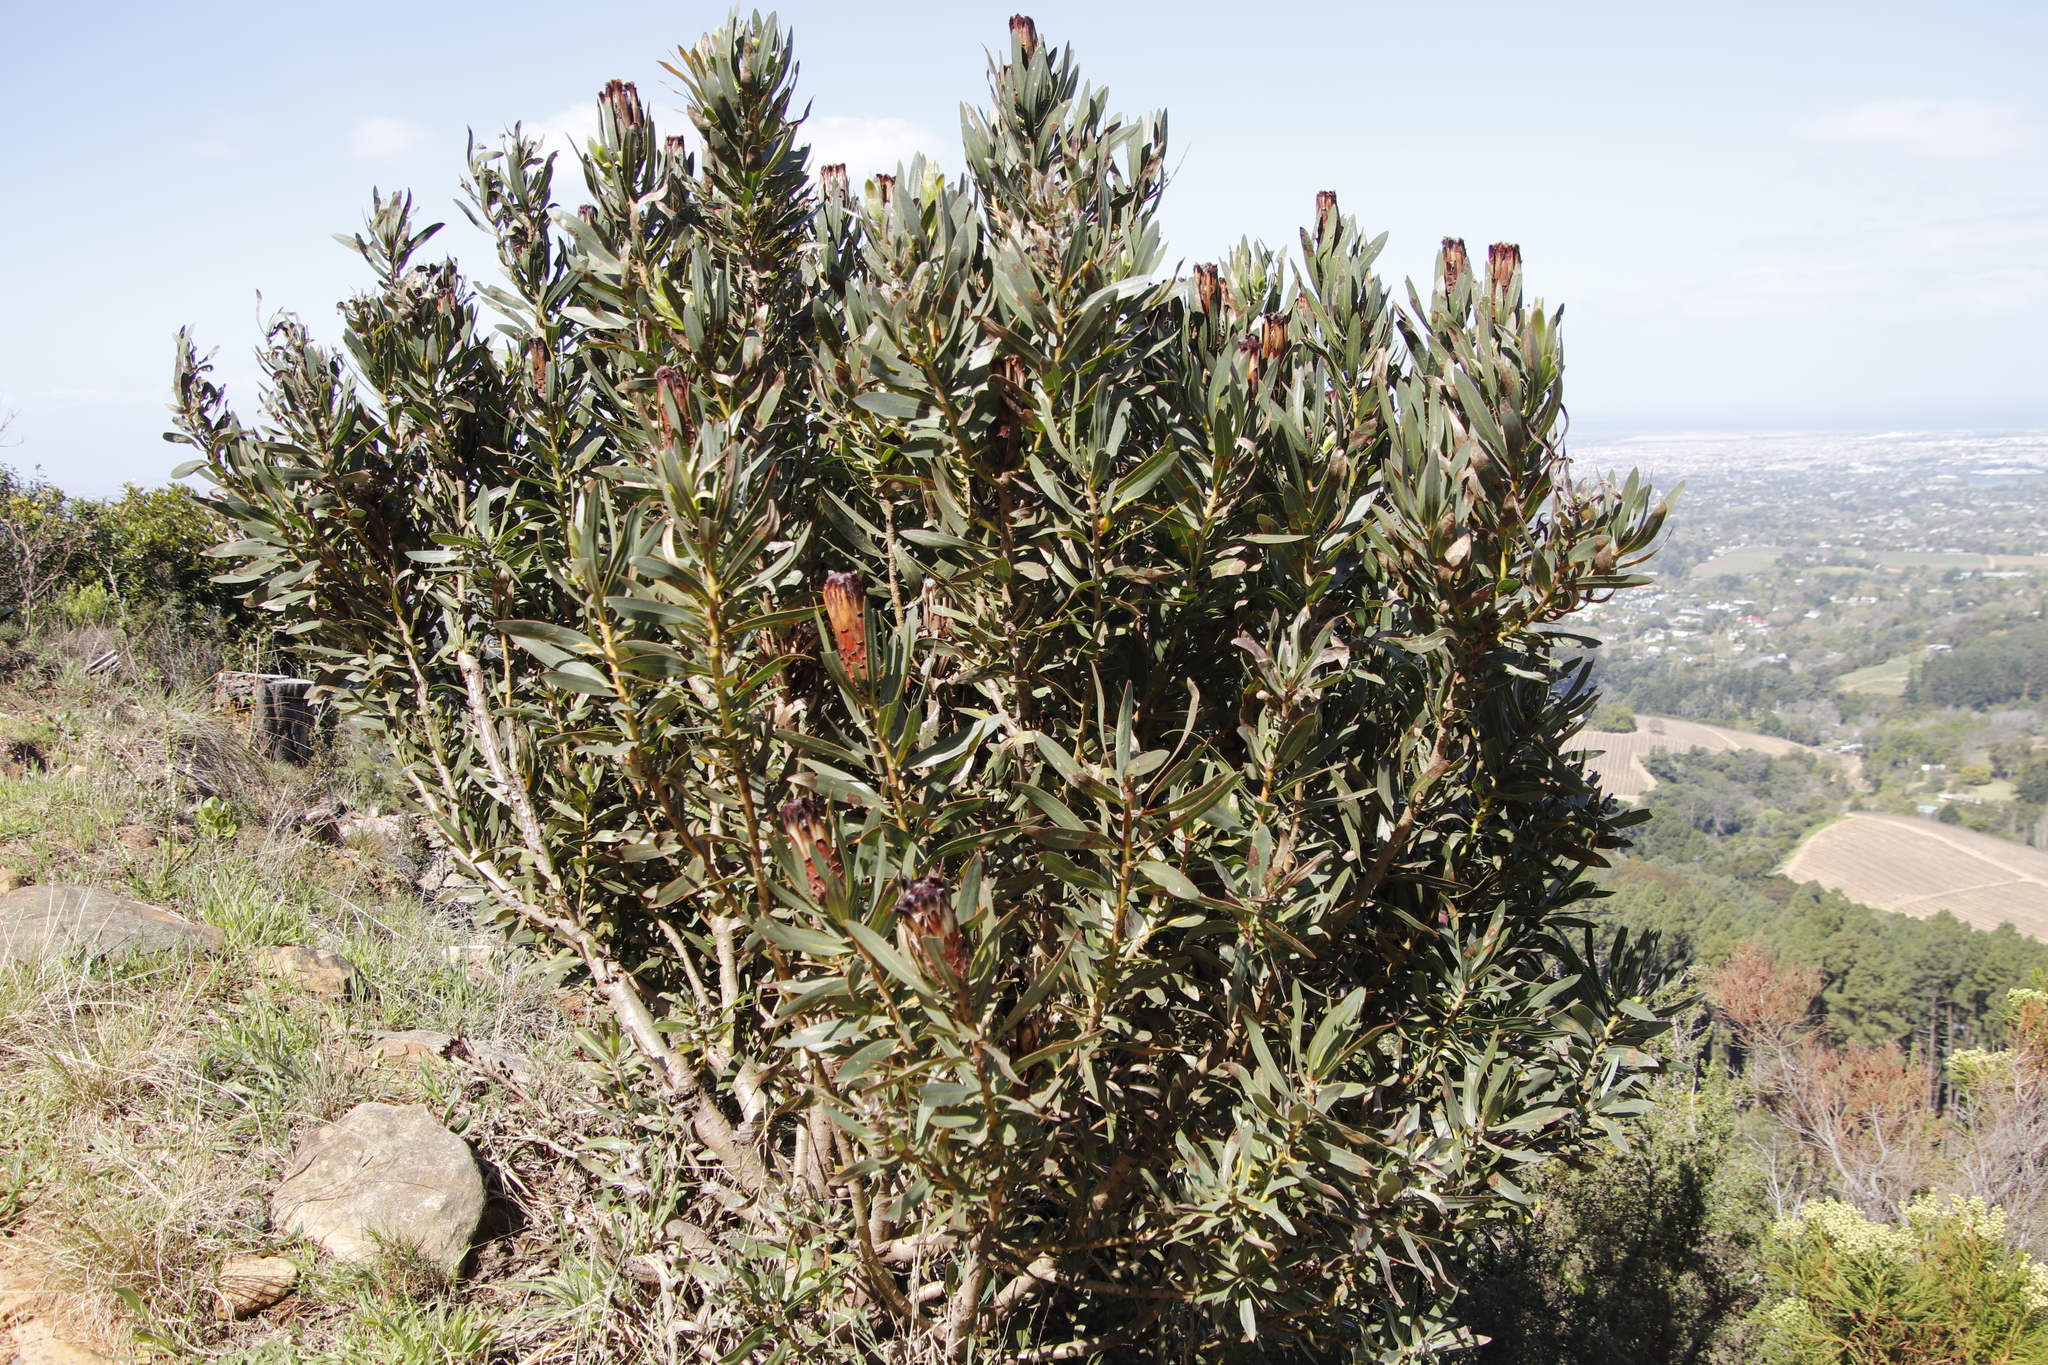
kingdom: Plantae
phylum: Tracheophyta
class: Magnoliopsida
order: Proteales
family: Proteaceae
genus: Protea
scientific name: Protea lepidocarpodendron
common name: Black-bearded protea
